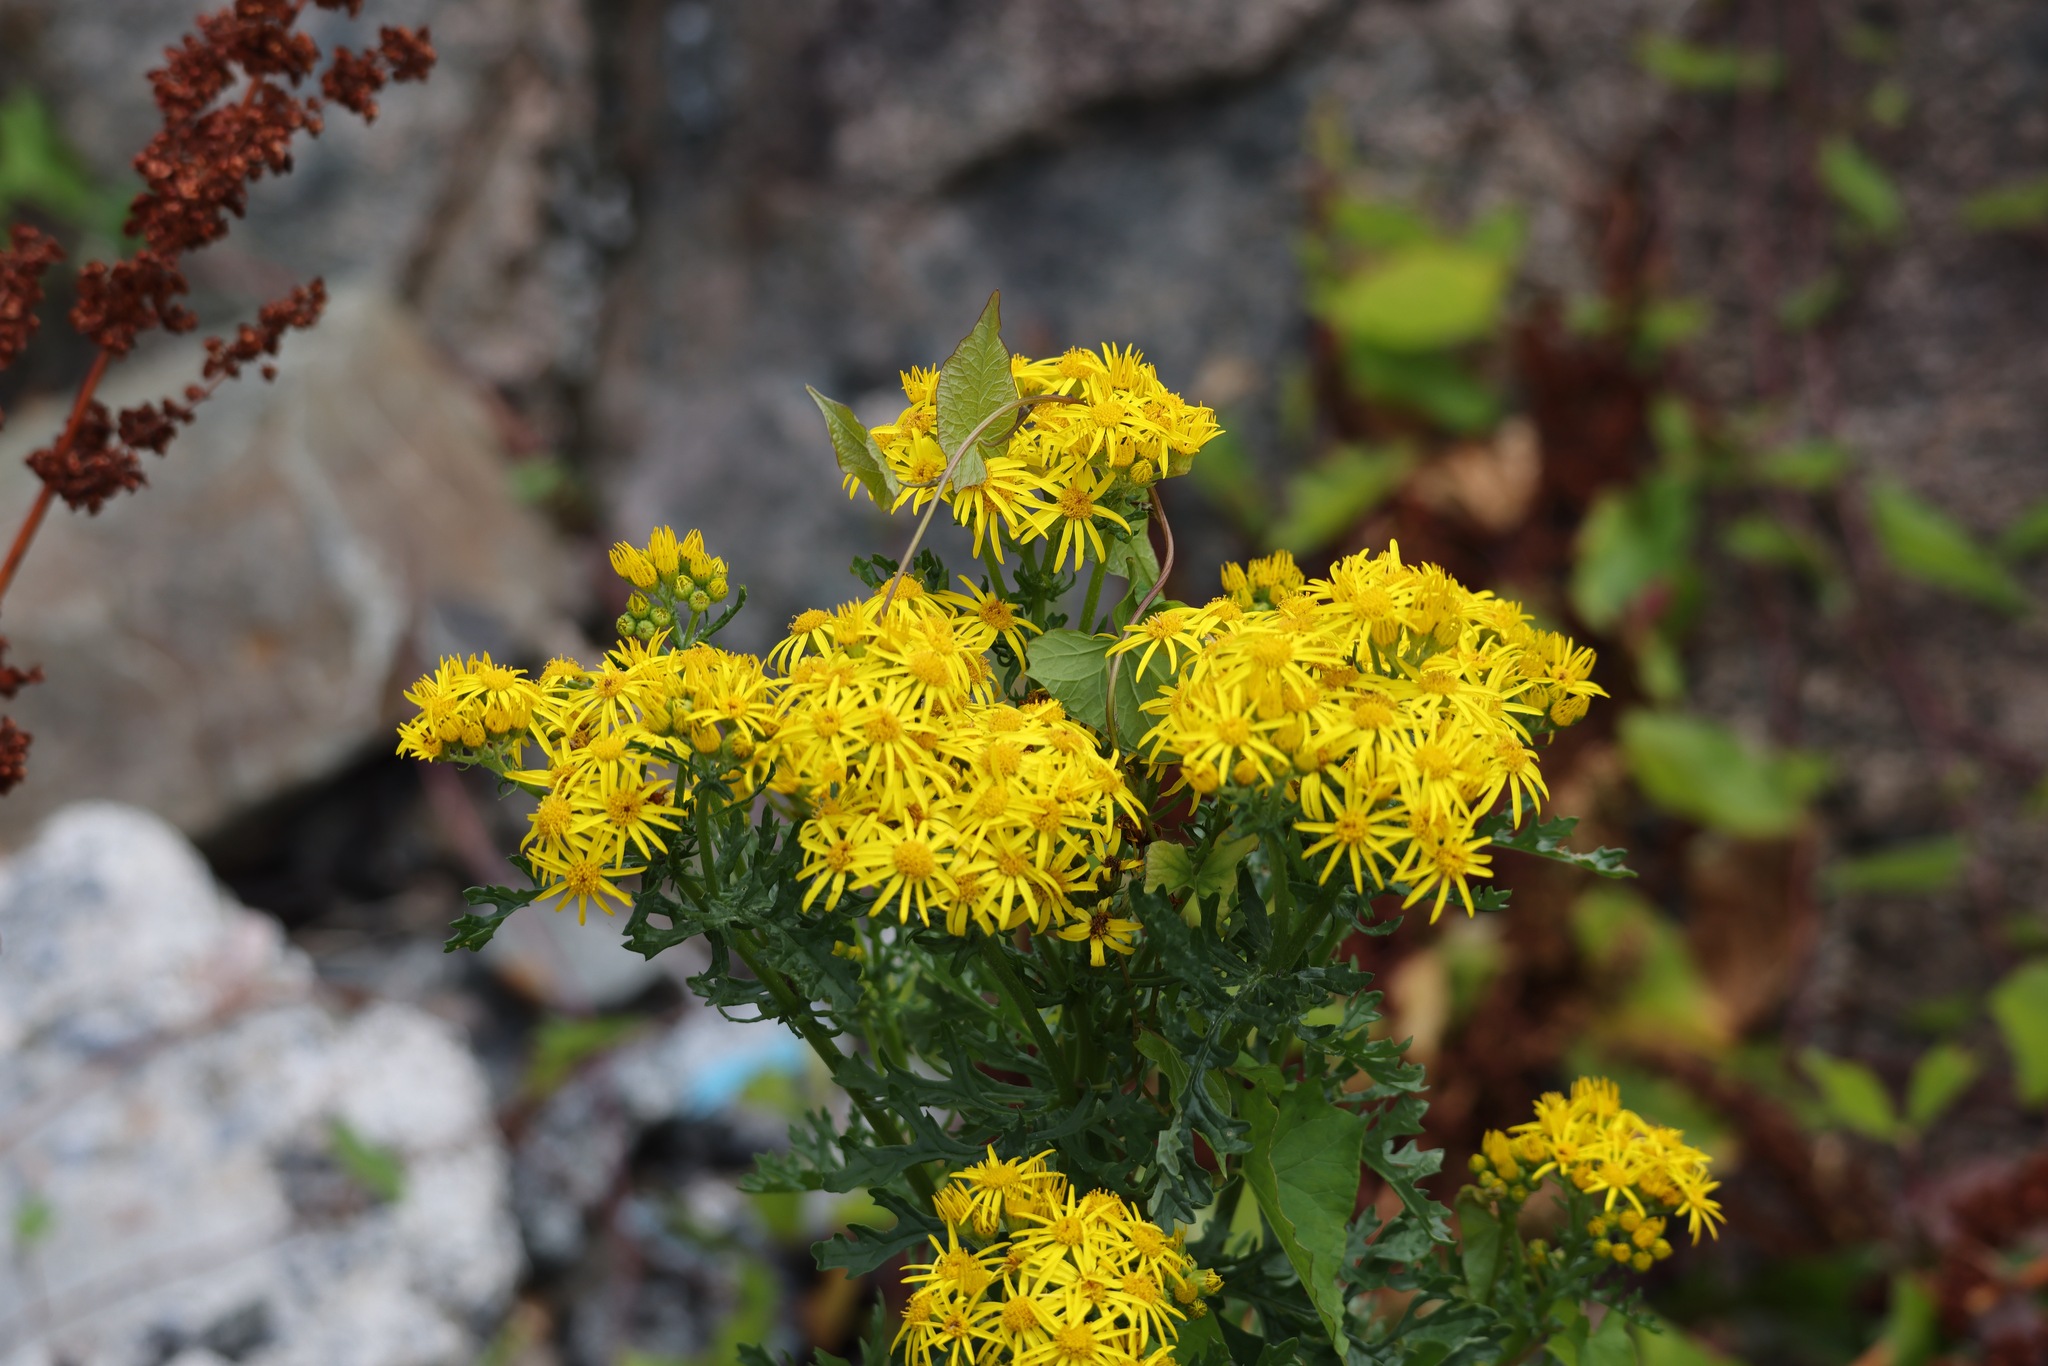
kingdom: Plantae
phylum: Tracheophyta
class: Magnoliopsida
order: Asterales
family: Asteraceae
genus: Jacobaea
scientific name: Jacobaea vulgaris
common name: Stinking willie
